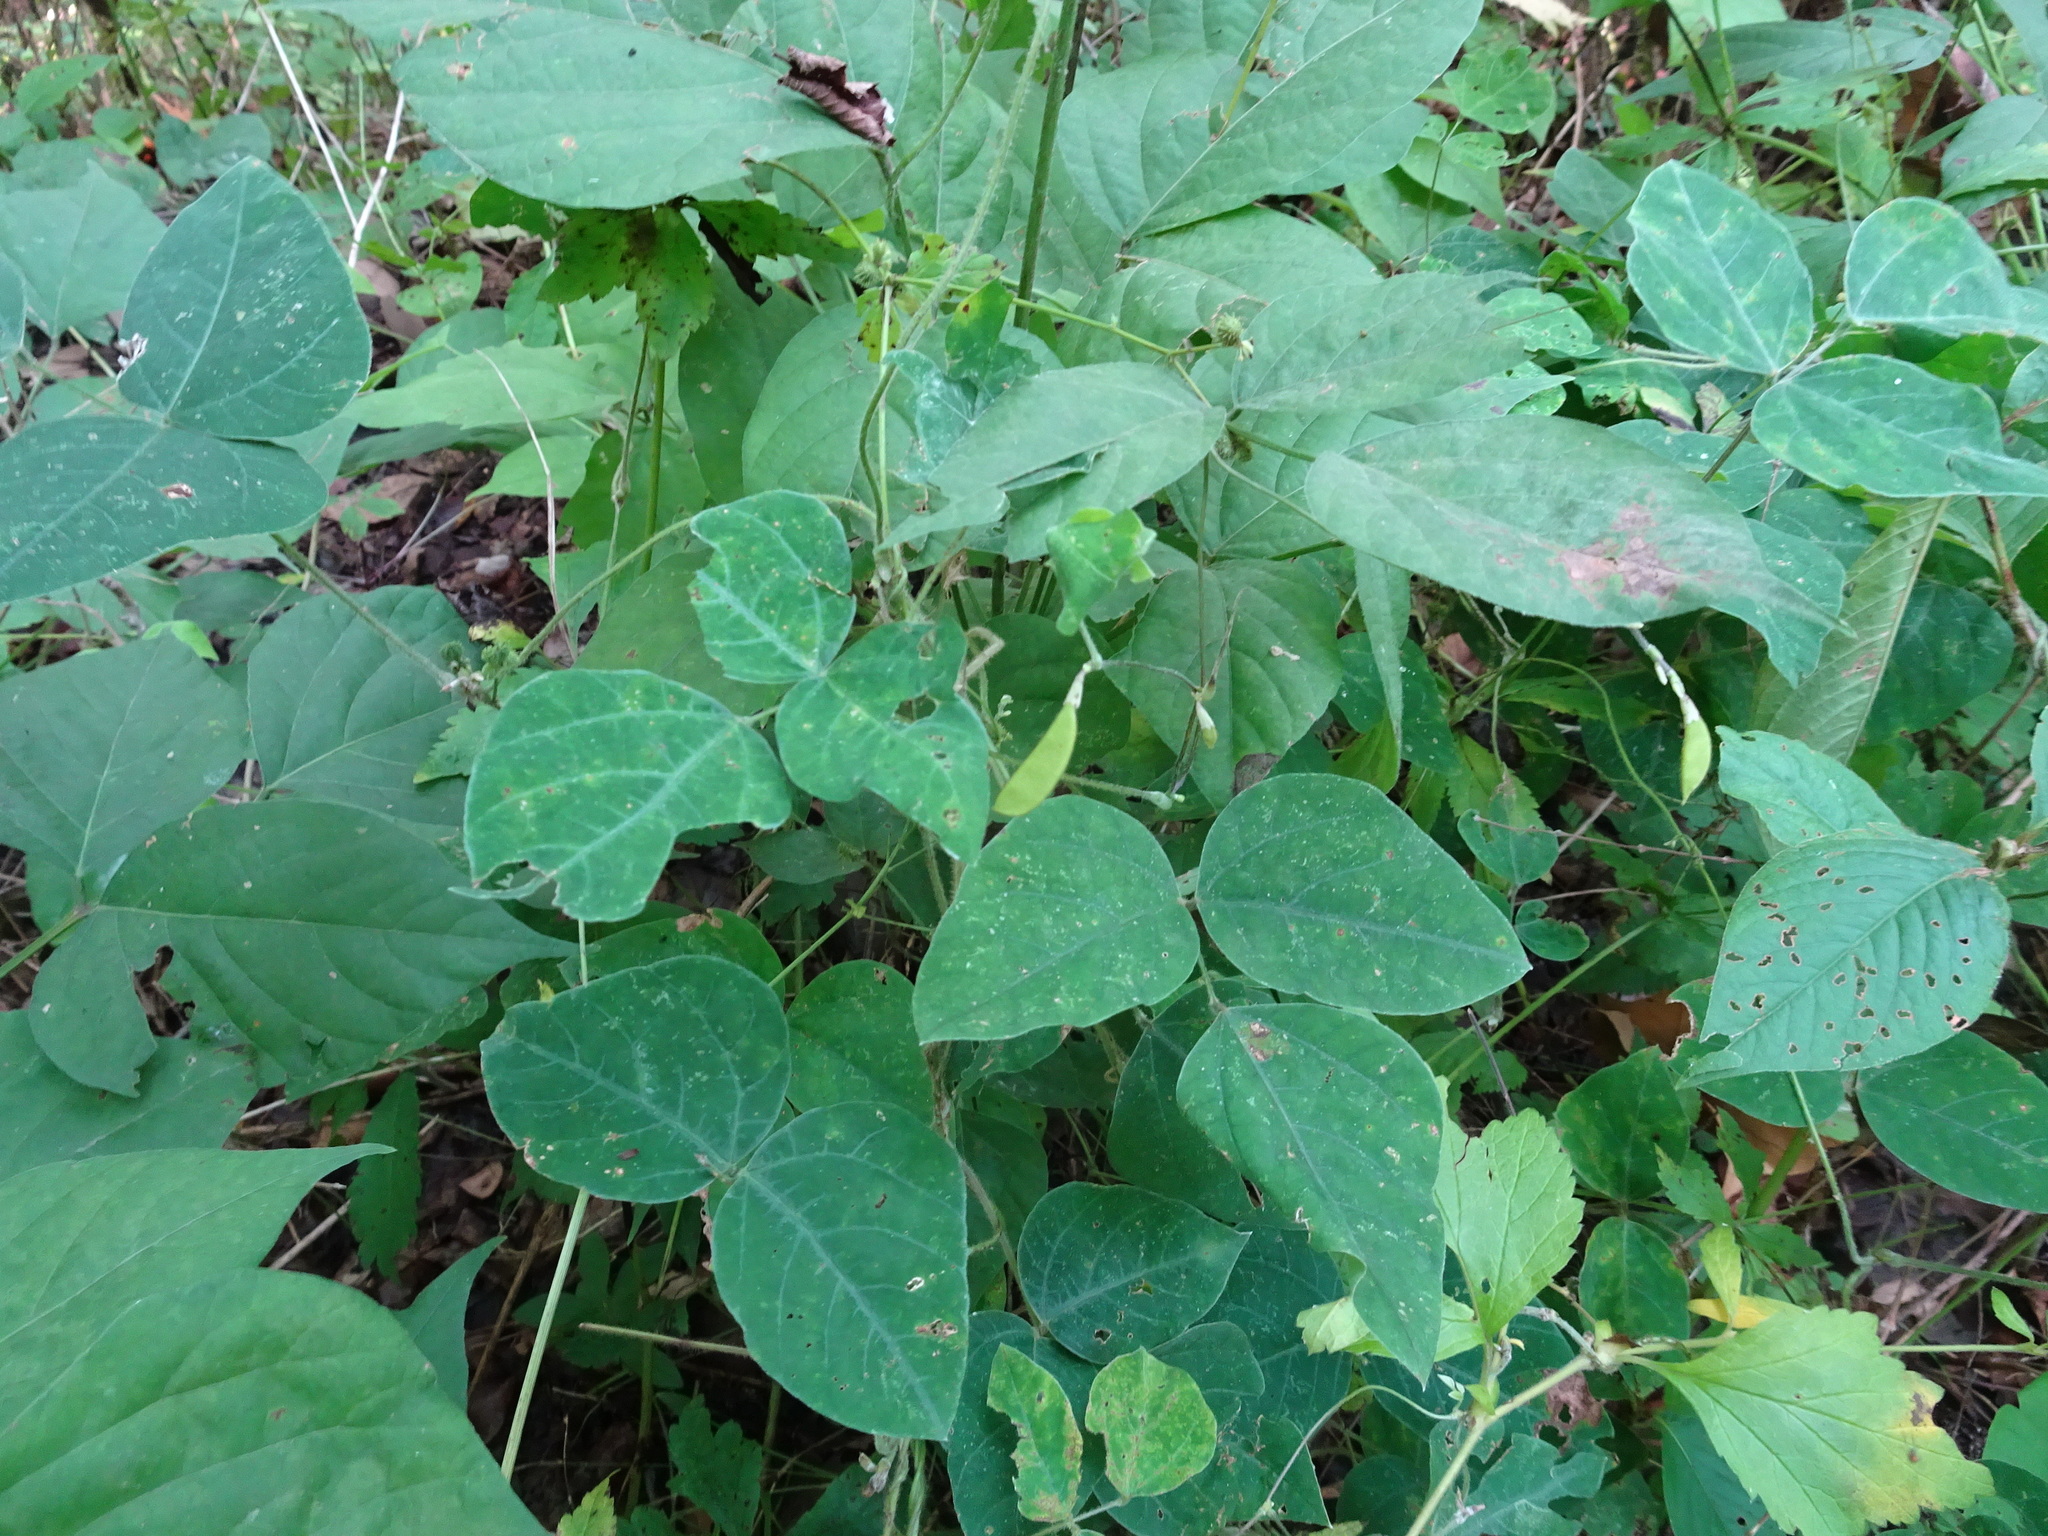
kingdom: Plantae
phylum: Tracheophyta
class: Magnoliopsida
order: Fabales
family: Fabaceae
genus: Amphicarpaea
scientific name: Amphicarpaea bracteata
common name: American hog peanut
